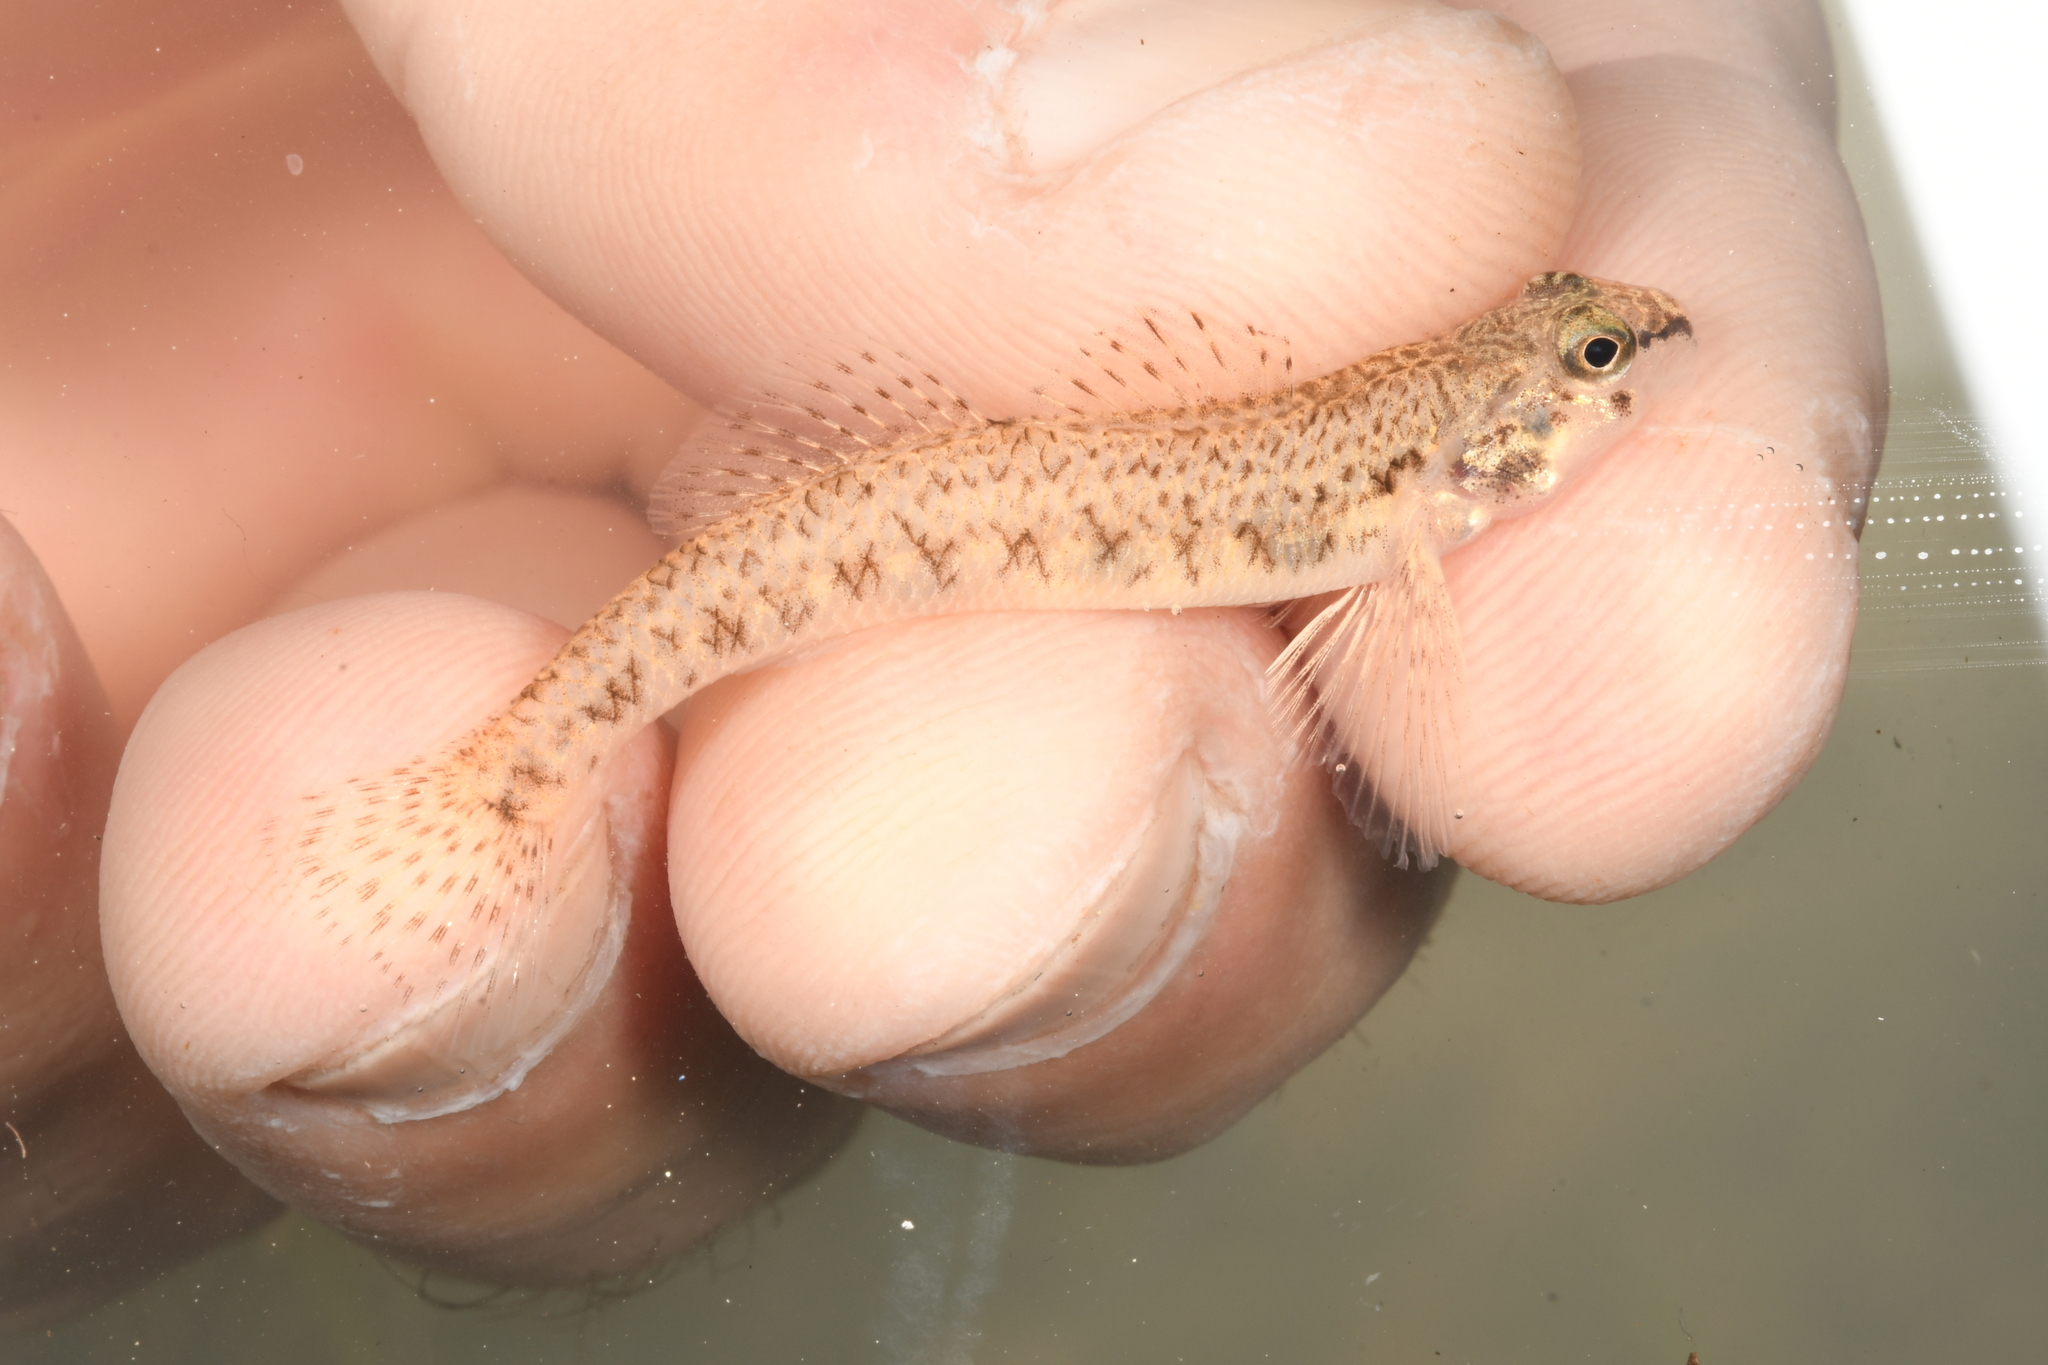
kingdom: Animalia
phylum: Chordata
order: Perciformes
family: Percidae
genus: Etheostoma
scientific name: Etheostoma nigrum
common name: Johnny darter
